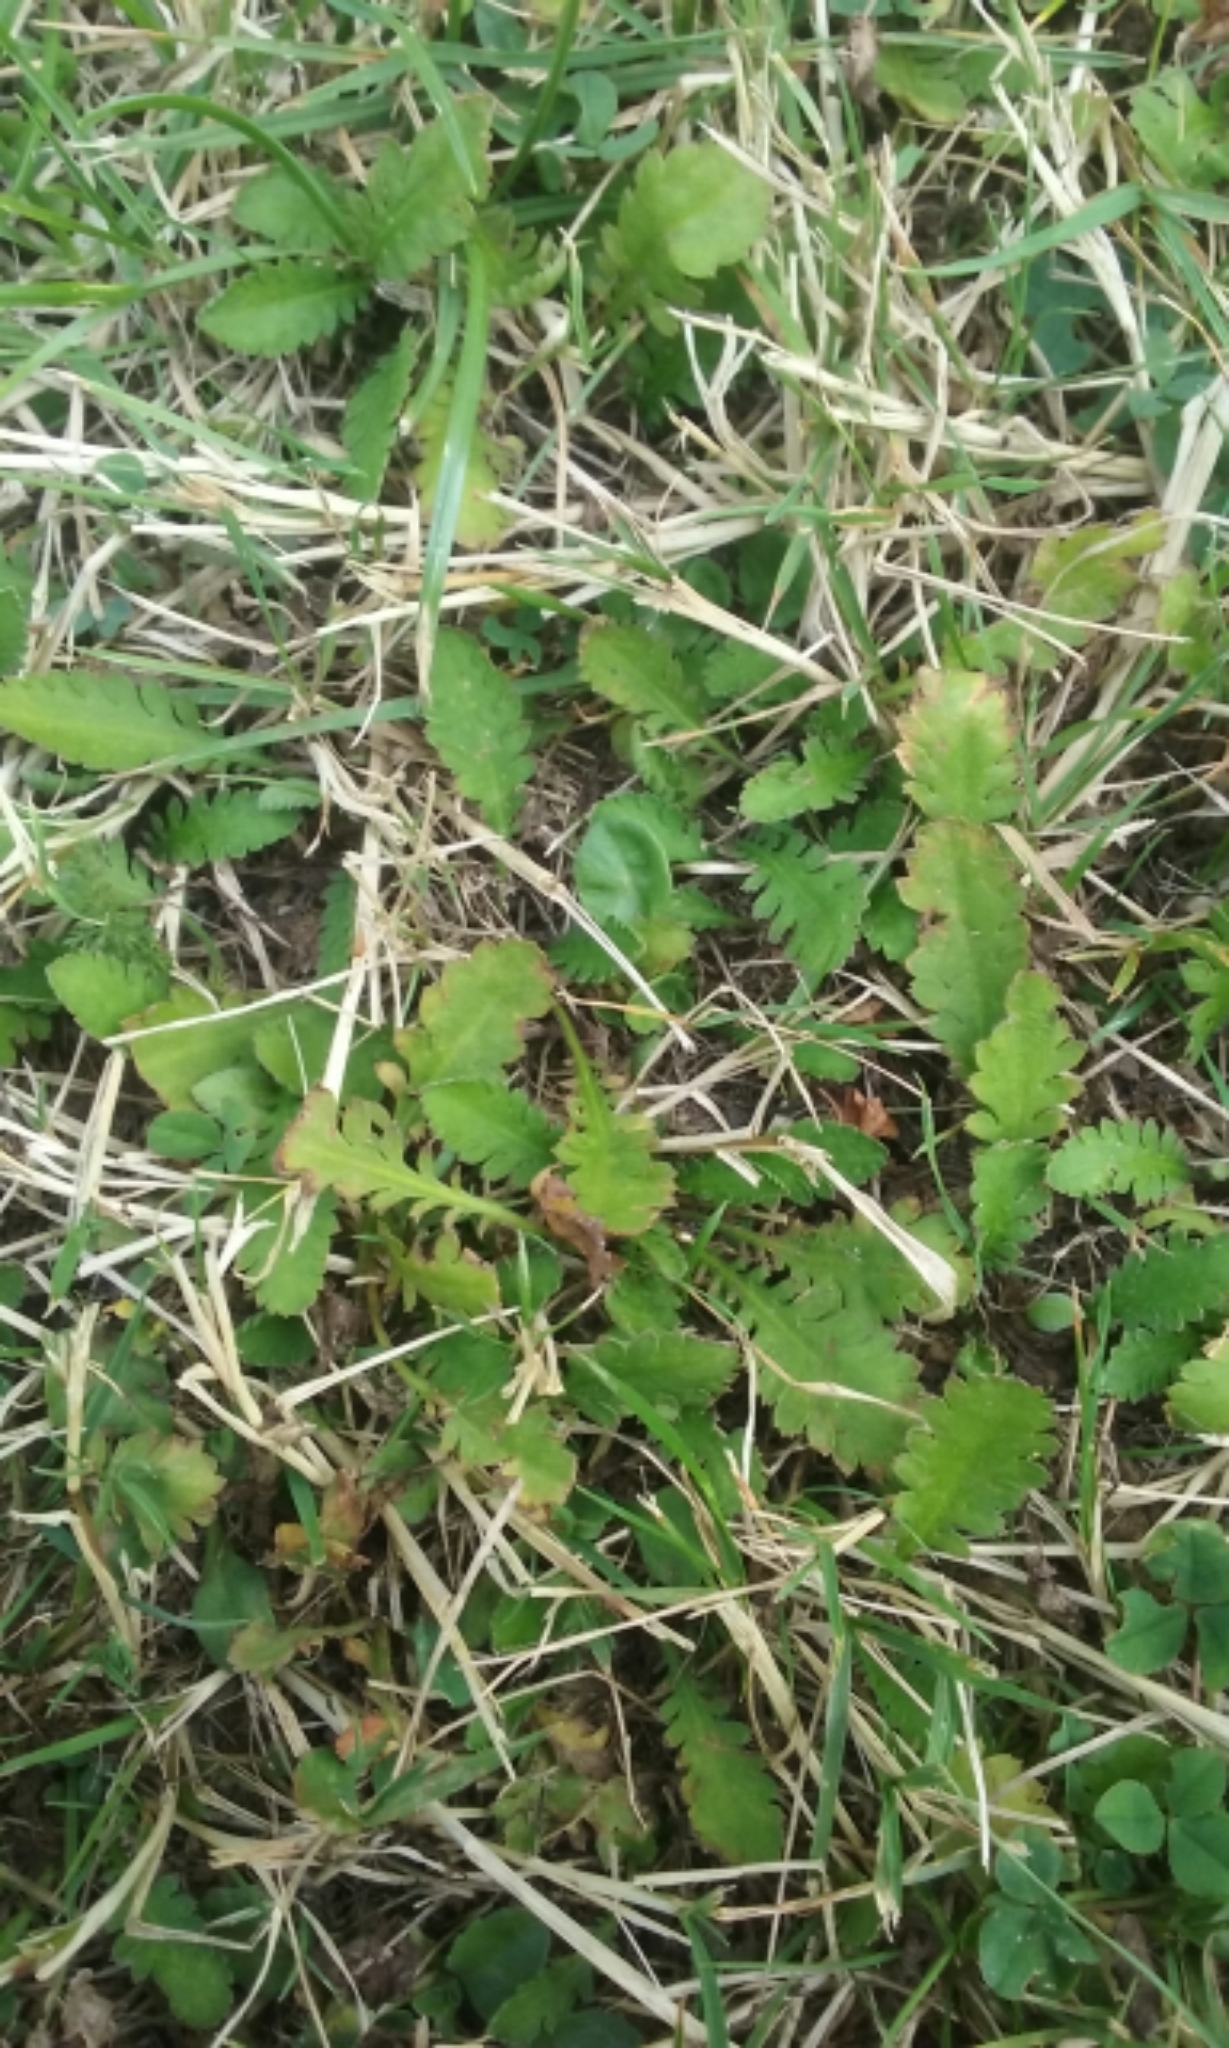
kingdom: Plantae
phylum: Tracheophyta
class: Magnoliopsida
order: Asterales
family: Asteraceae
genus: Leptinella
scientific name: Leptinella dioica
